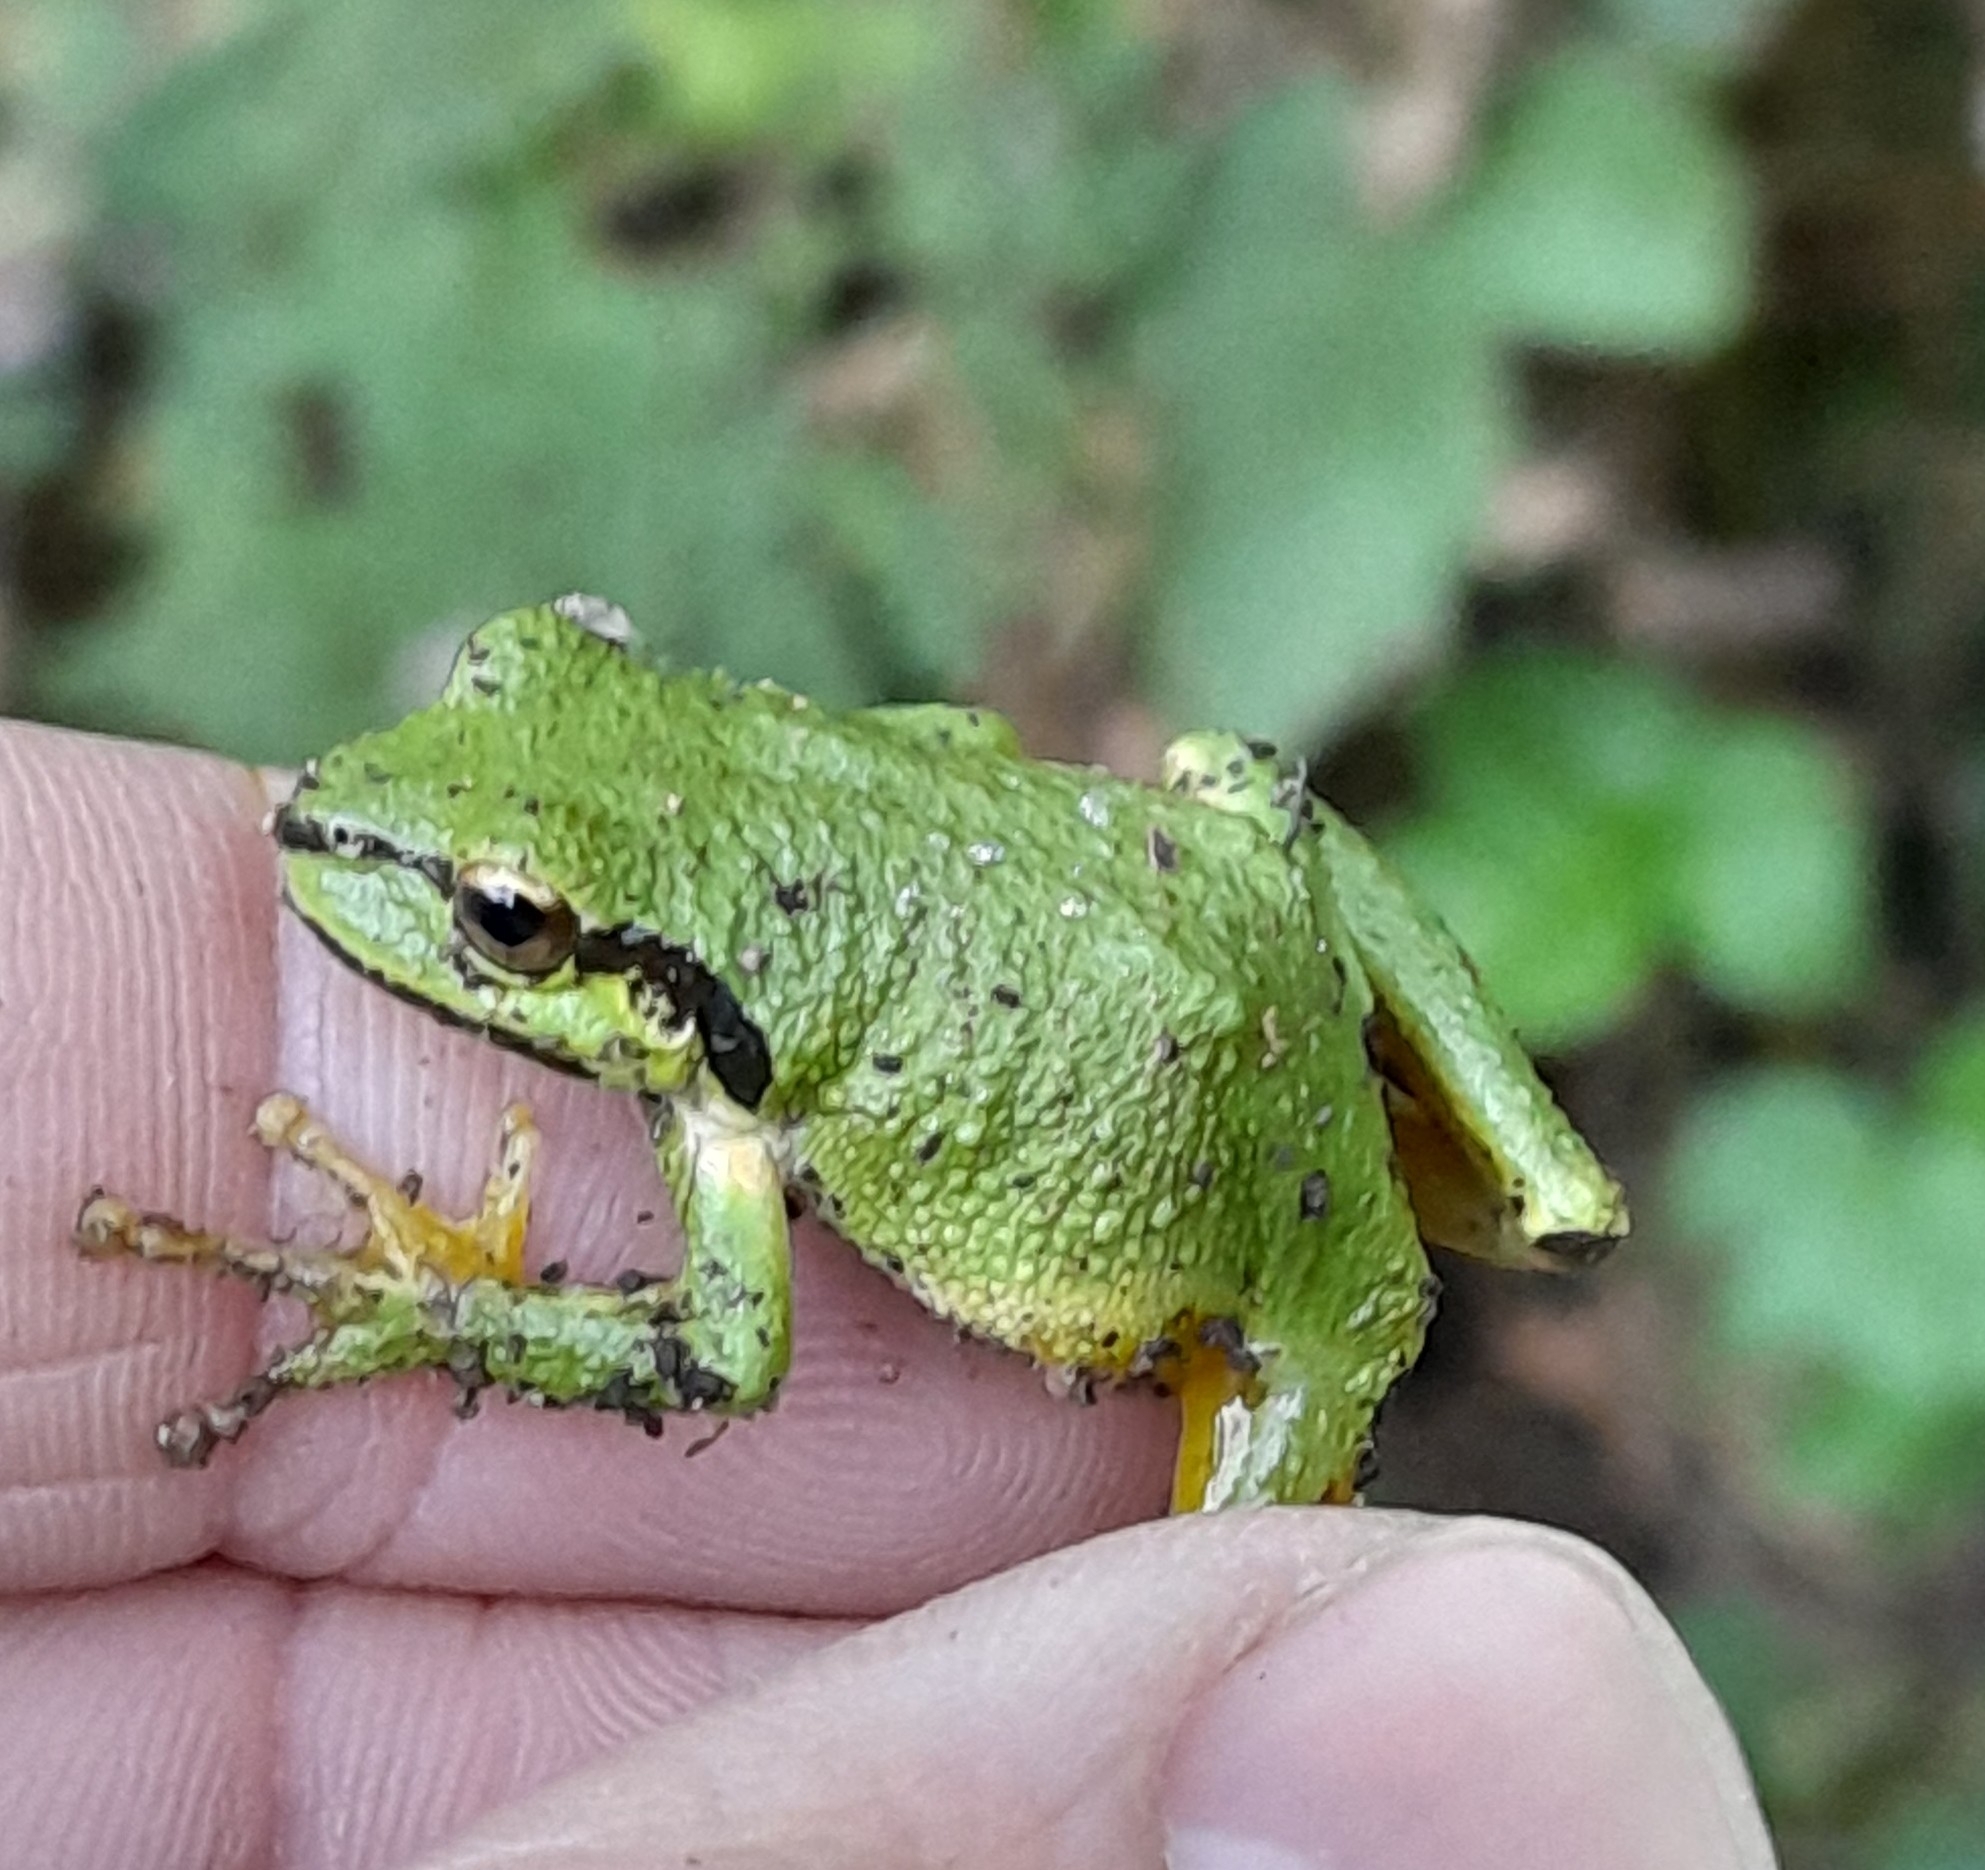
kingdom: Animalia
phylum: Chordata
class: Amphibia
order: Anura
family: Hylidae
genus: Pseudacris
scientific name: Pseudacris regilla
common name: Pacific chorus frog
